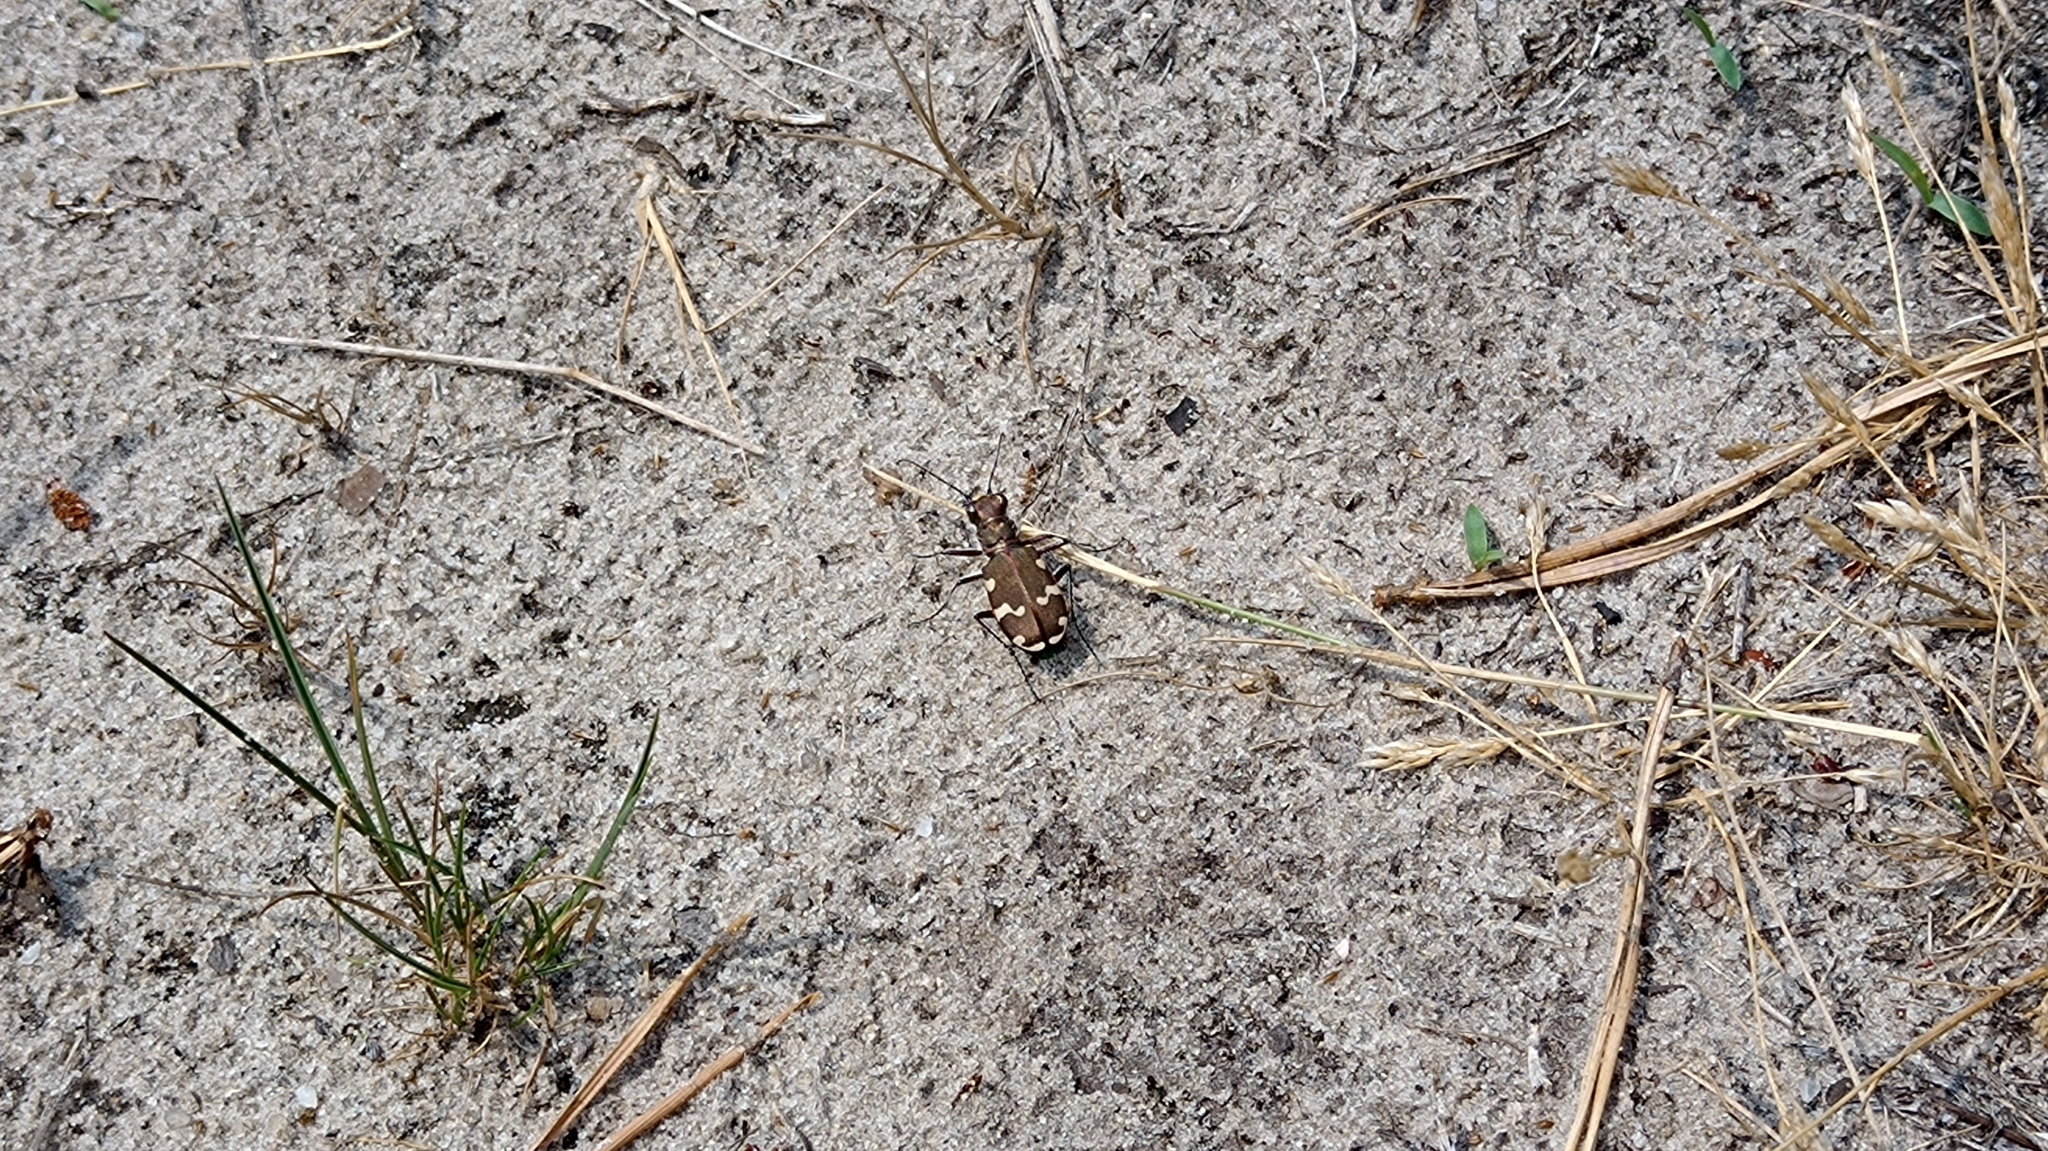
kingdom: Animalia
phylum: Arthropoda
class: Insecta
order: Coleoptera
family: Carabidae
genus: Cicindela
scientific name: Cicindela hybrida
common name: Northern dune tiger beetle
